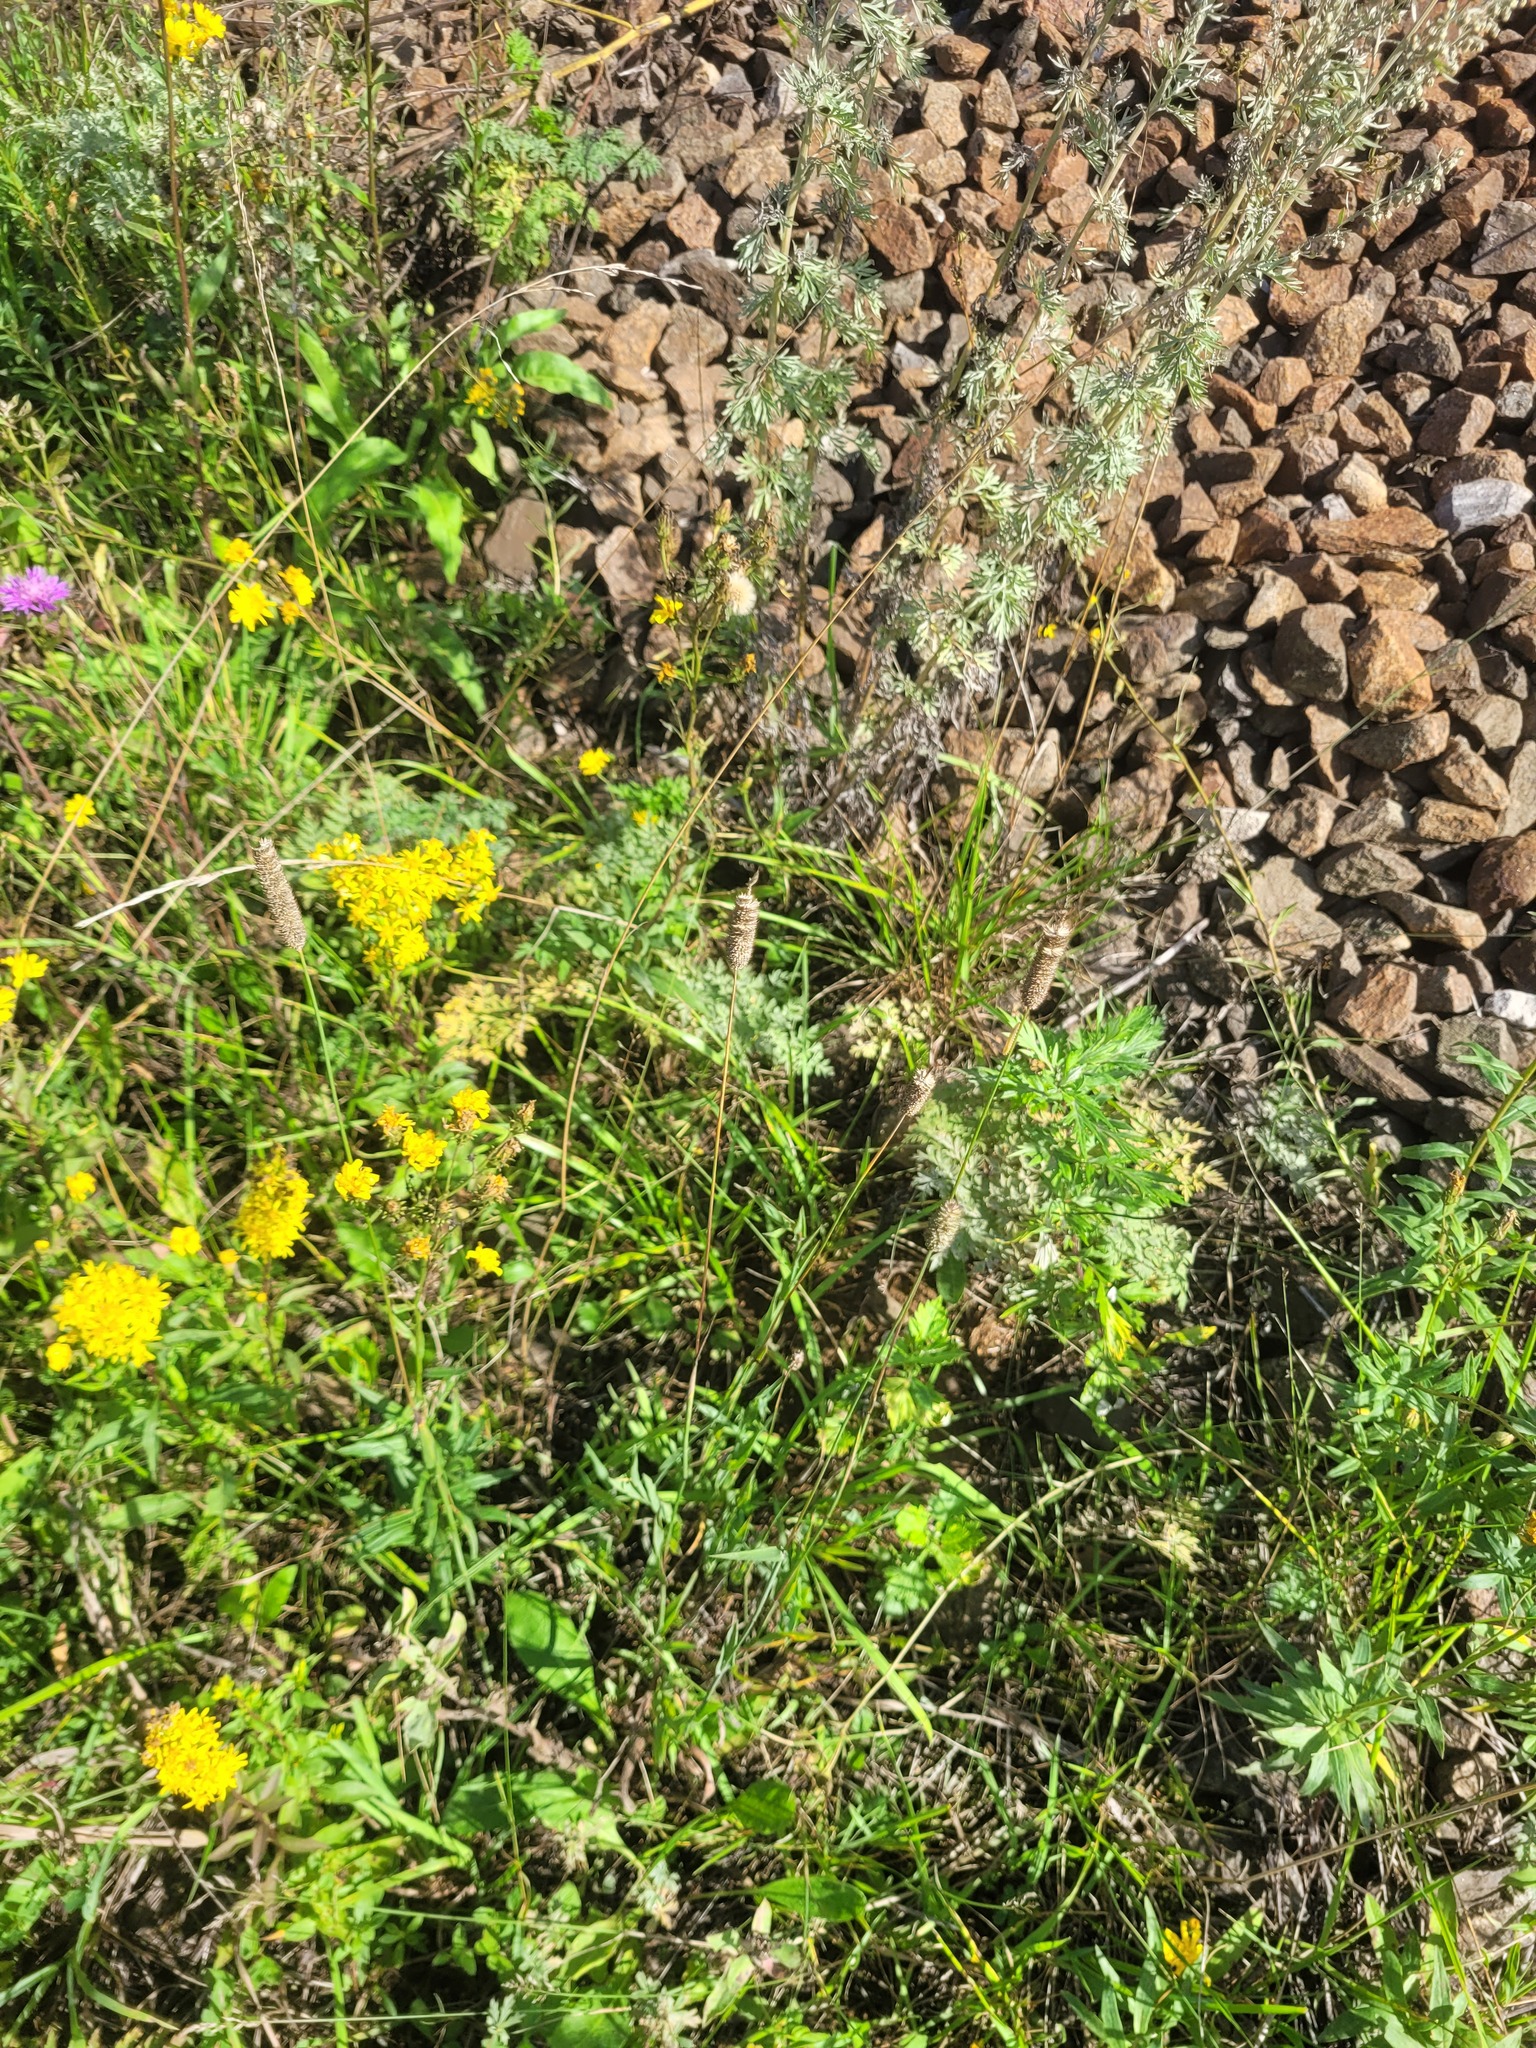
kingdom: Plantae
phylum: Tracheophyta
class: Liliopsida
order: Poales
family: Poaceae
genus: Phleum
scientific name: Phleum pratense
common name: Timothy grass
